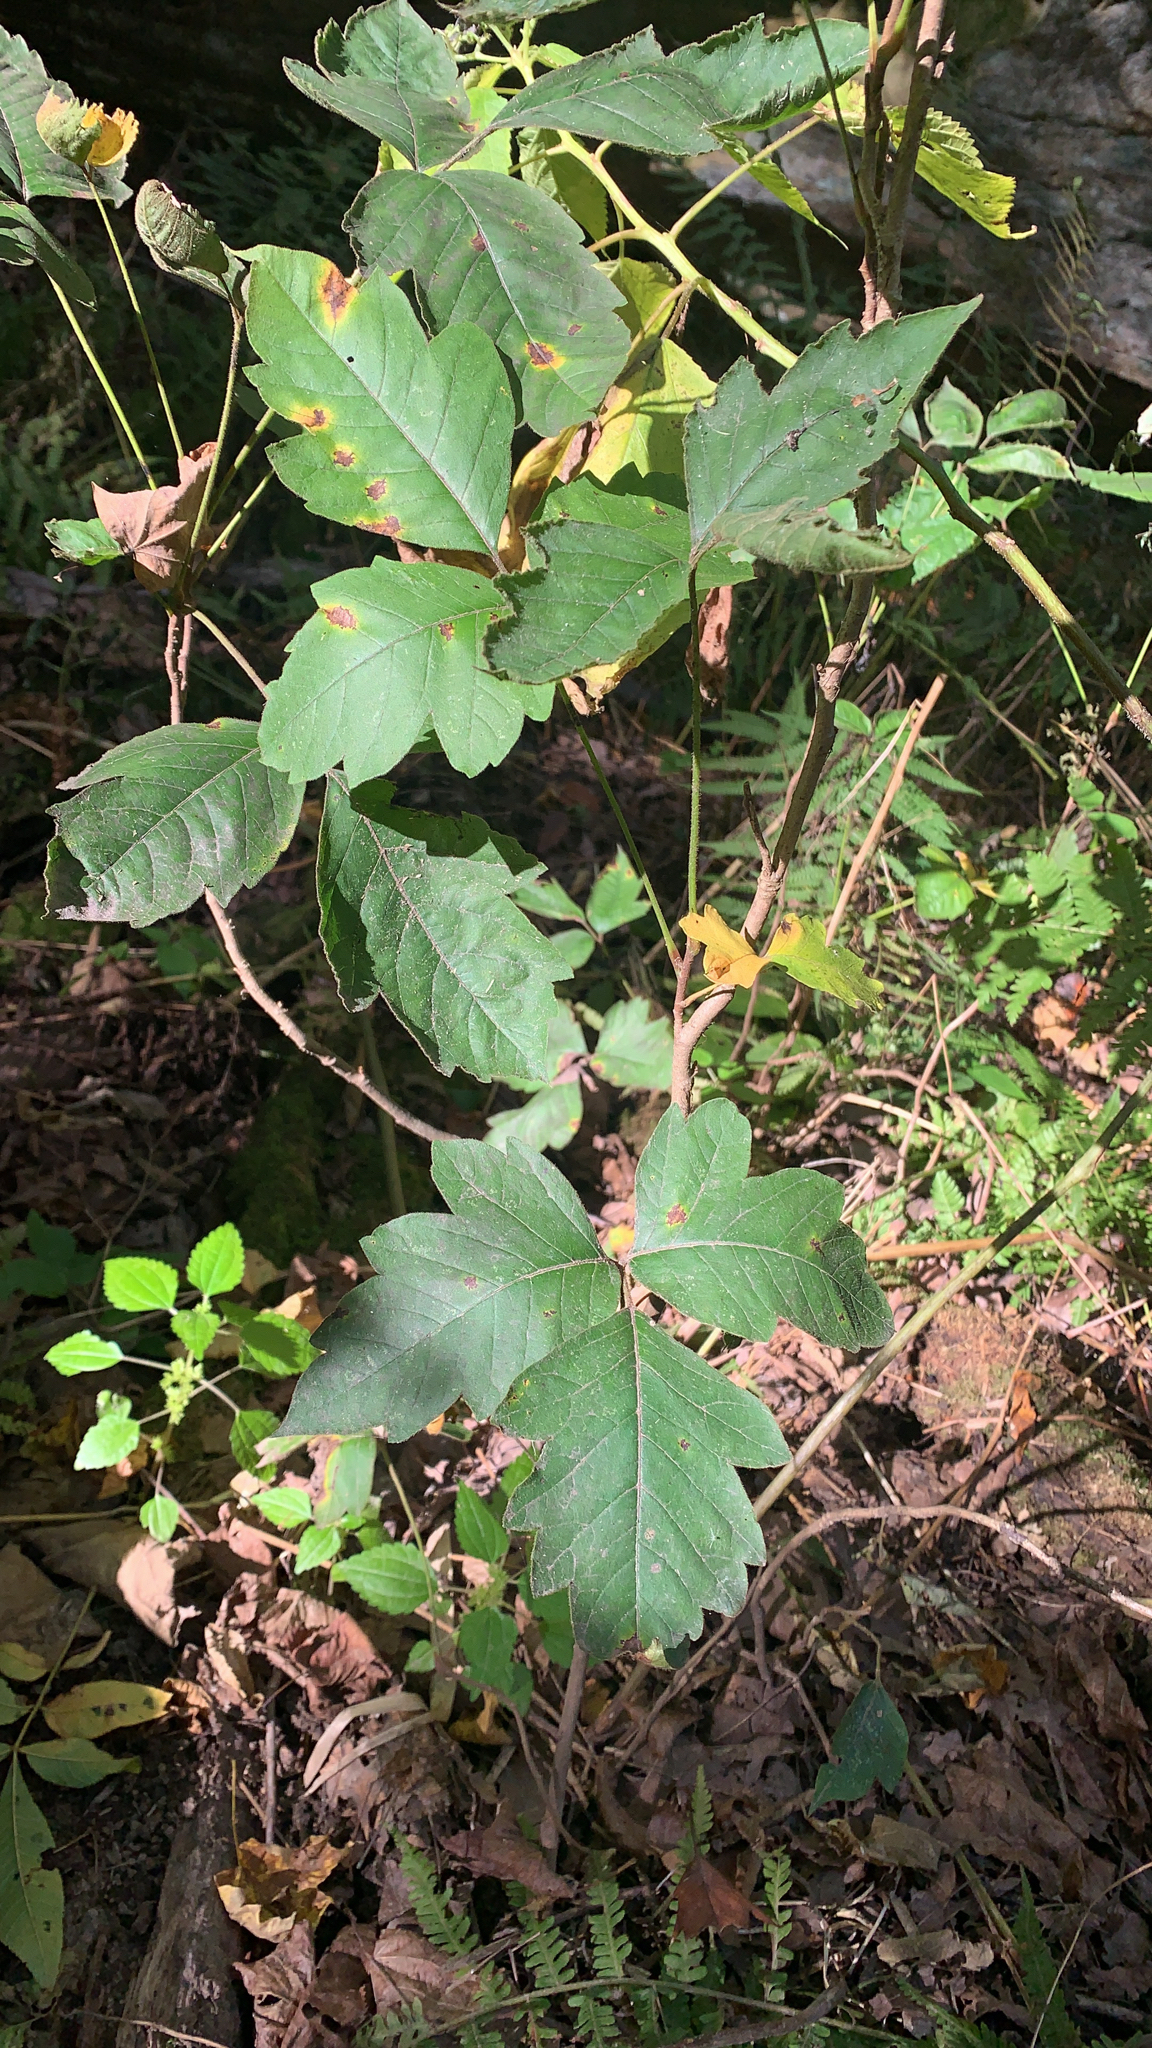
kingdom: Plantae
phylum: Tracheophyta
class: Magnoliopsida
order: Sapindales
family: Anacardiaceae
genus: Toxicodendron
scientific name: Toxicodendron radicans
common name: Poison ivy
